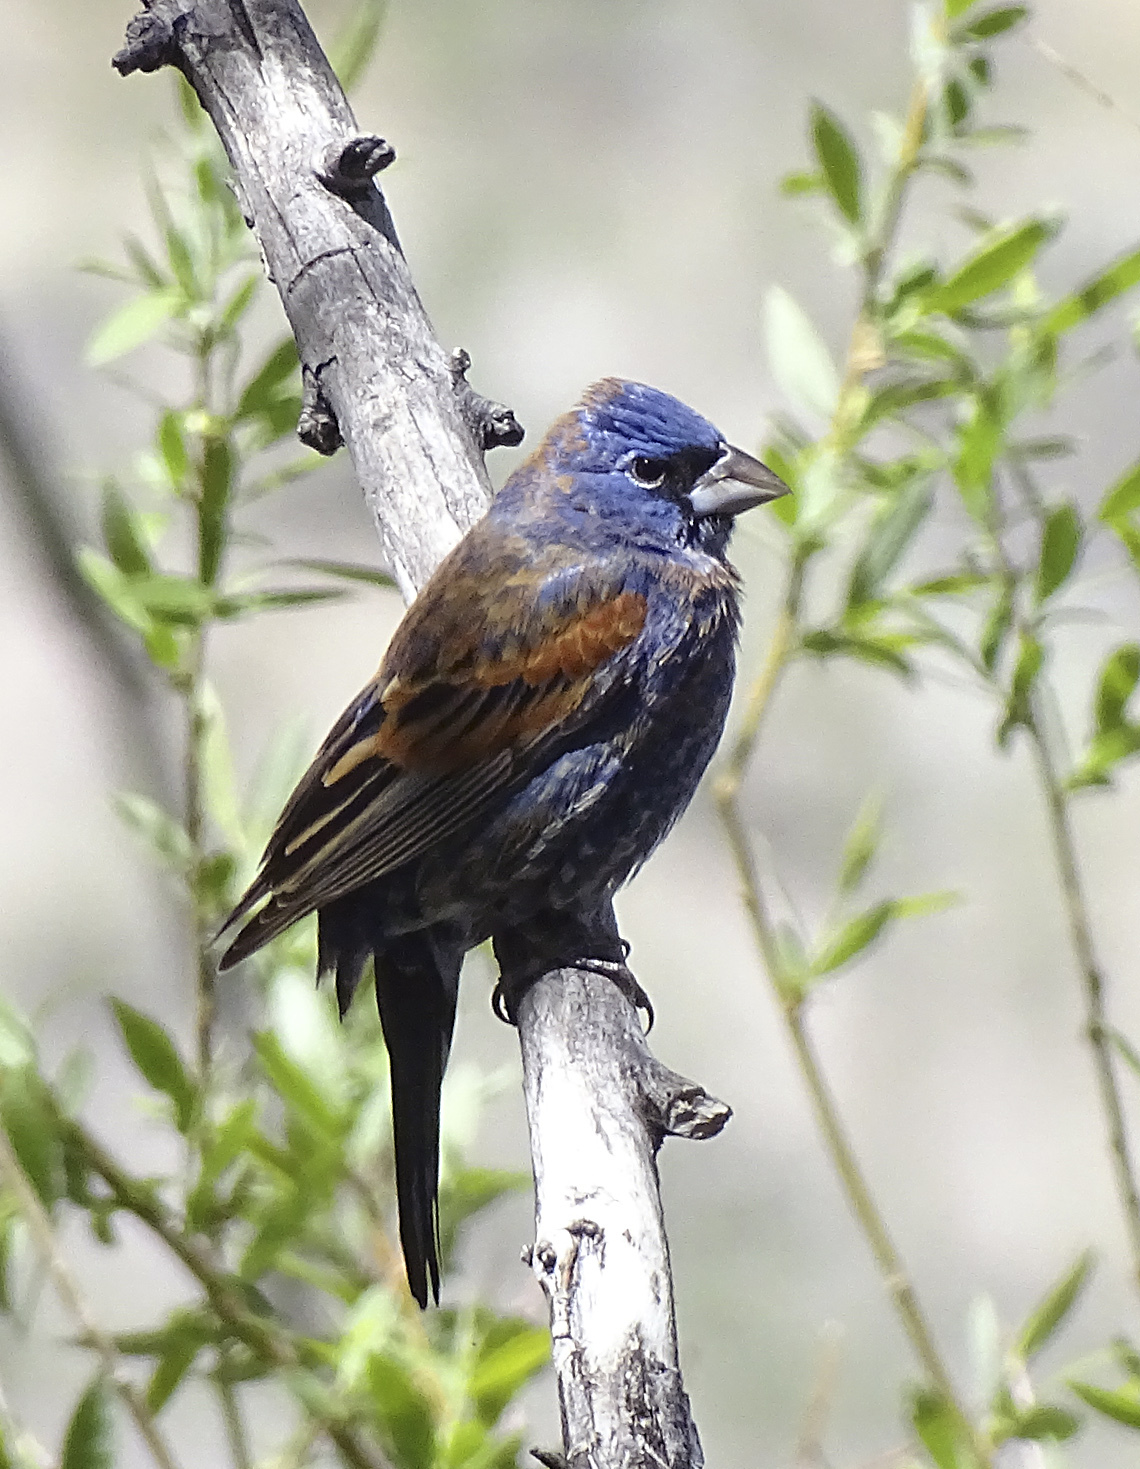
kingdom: Animalia
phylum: Chordata
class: Aves
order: Passeriformes
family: Cardinalidae
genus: Passerina
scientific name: Passerina caerulea
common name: Blue grosbeak
